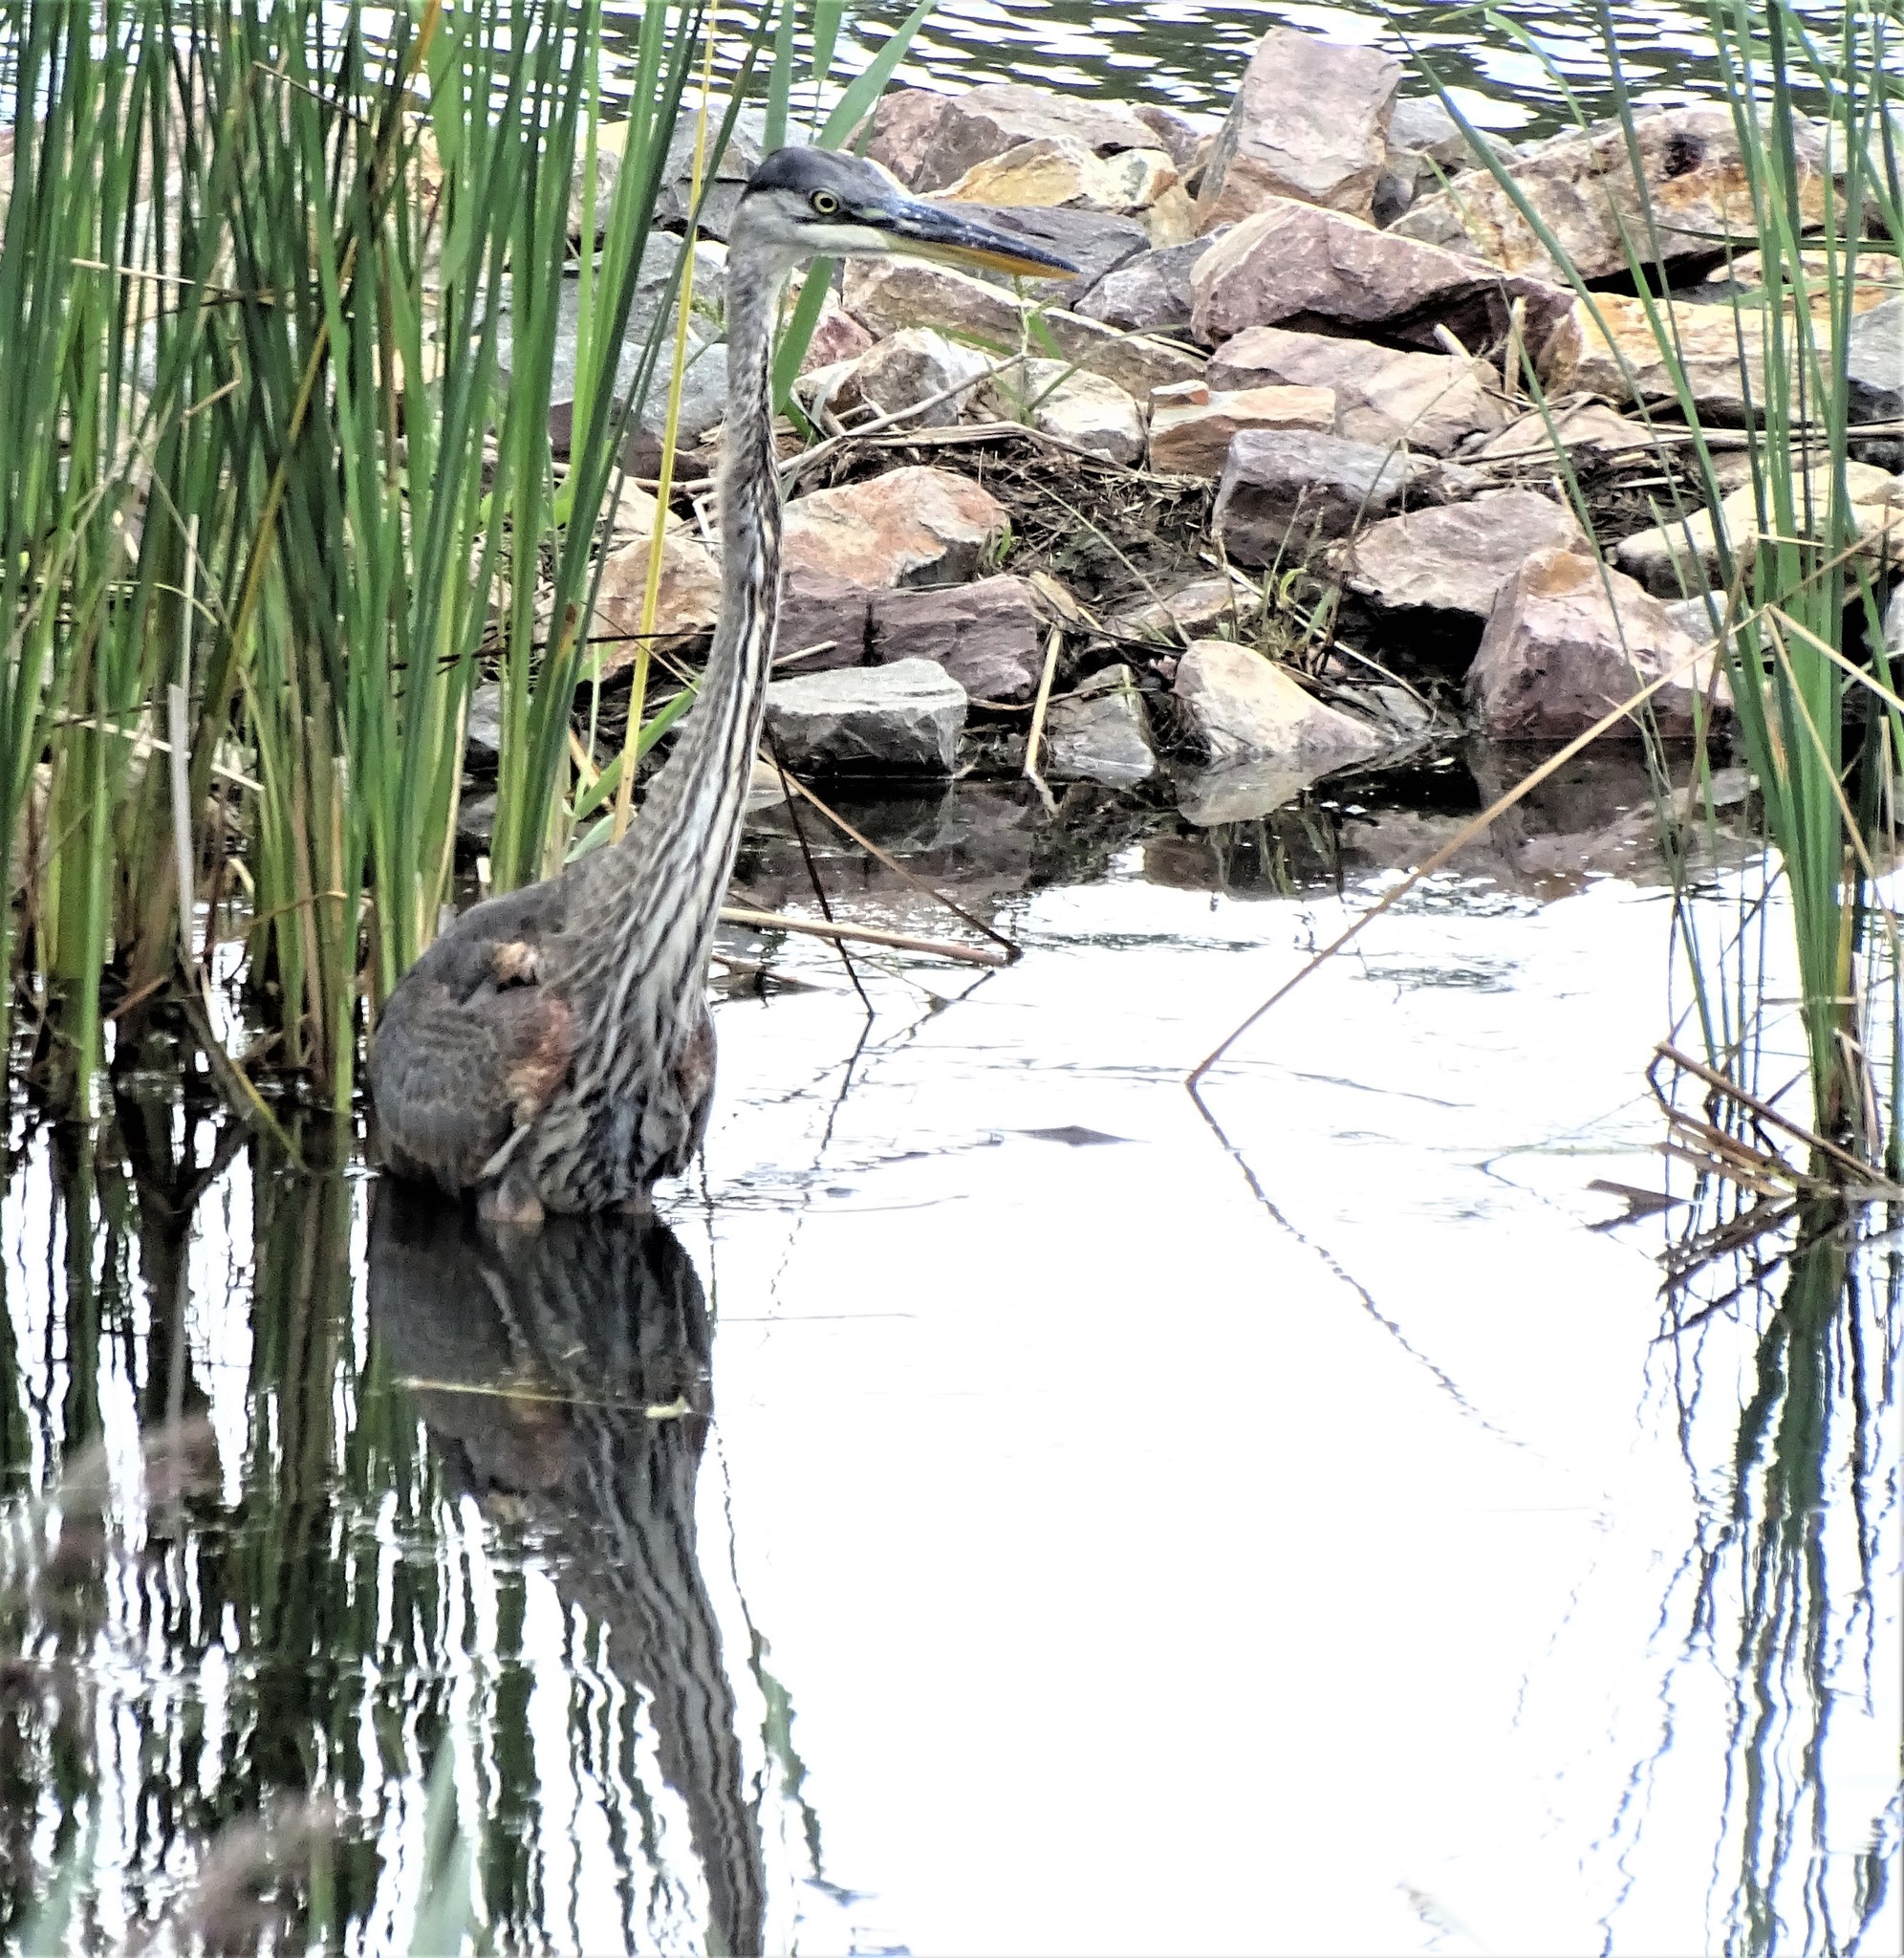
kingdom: Animalia
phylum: Chordata
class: Aves
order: Pelecaniformes
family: Ardeidae
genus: Ardea
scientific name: Ardea herodias
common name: Great blue heron
